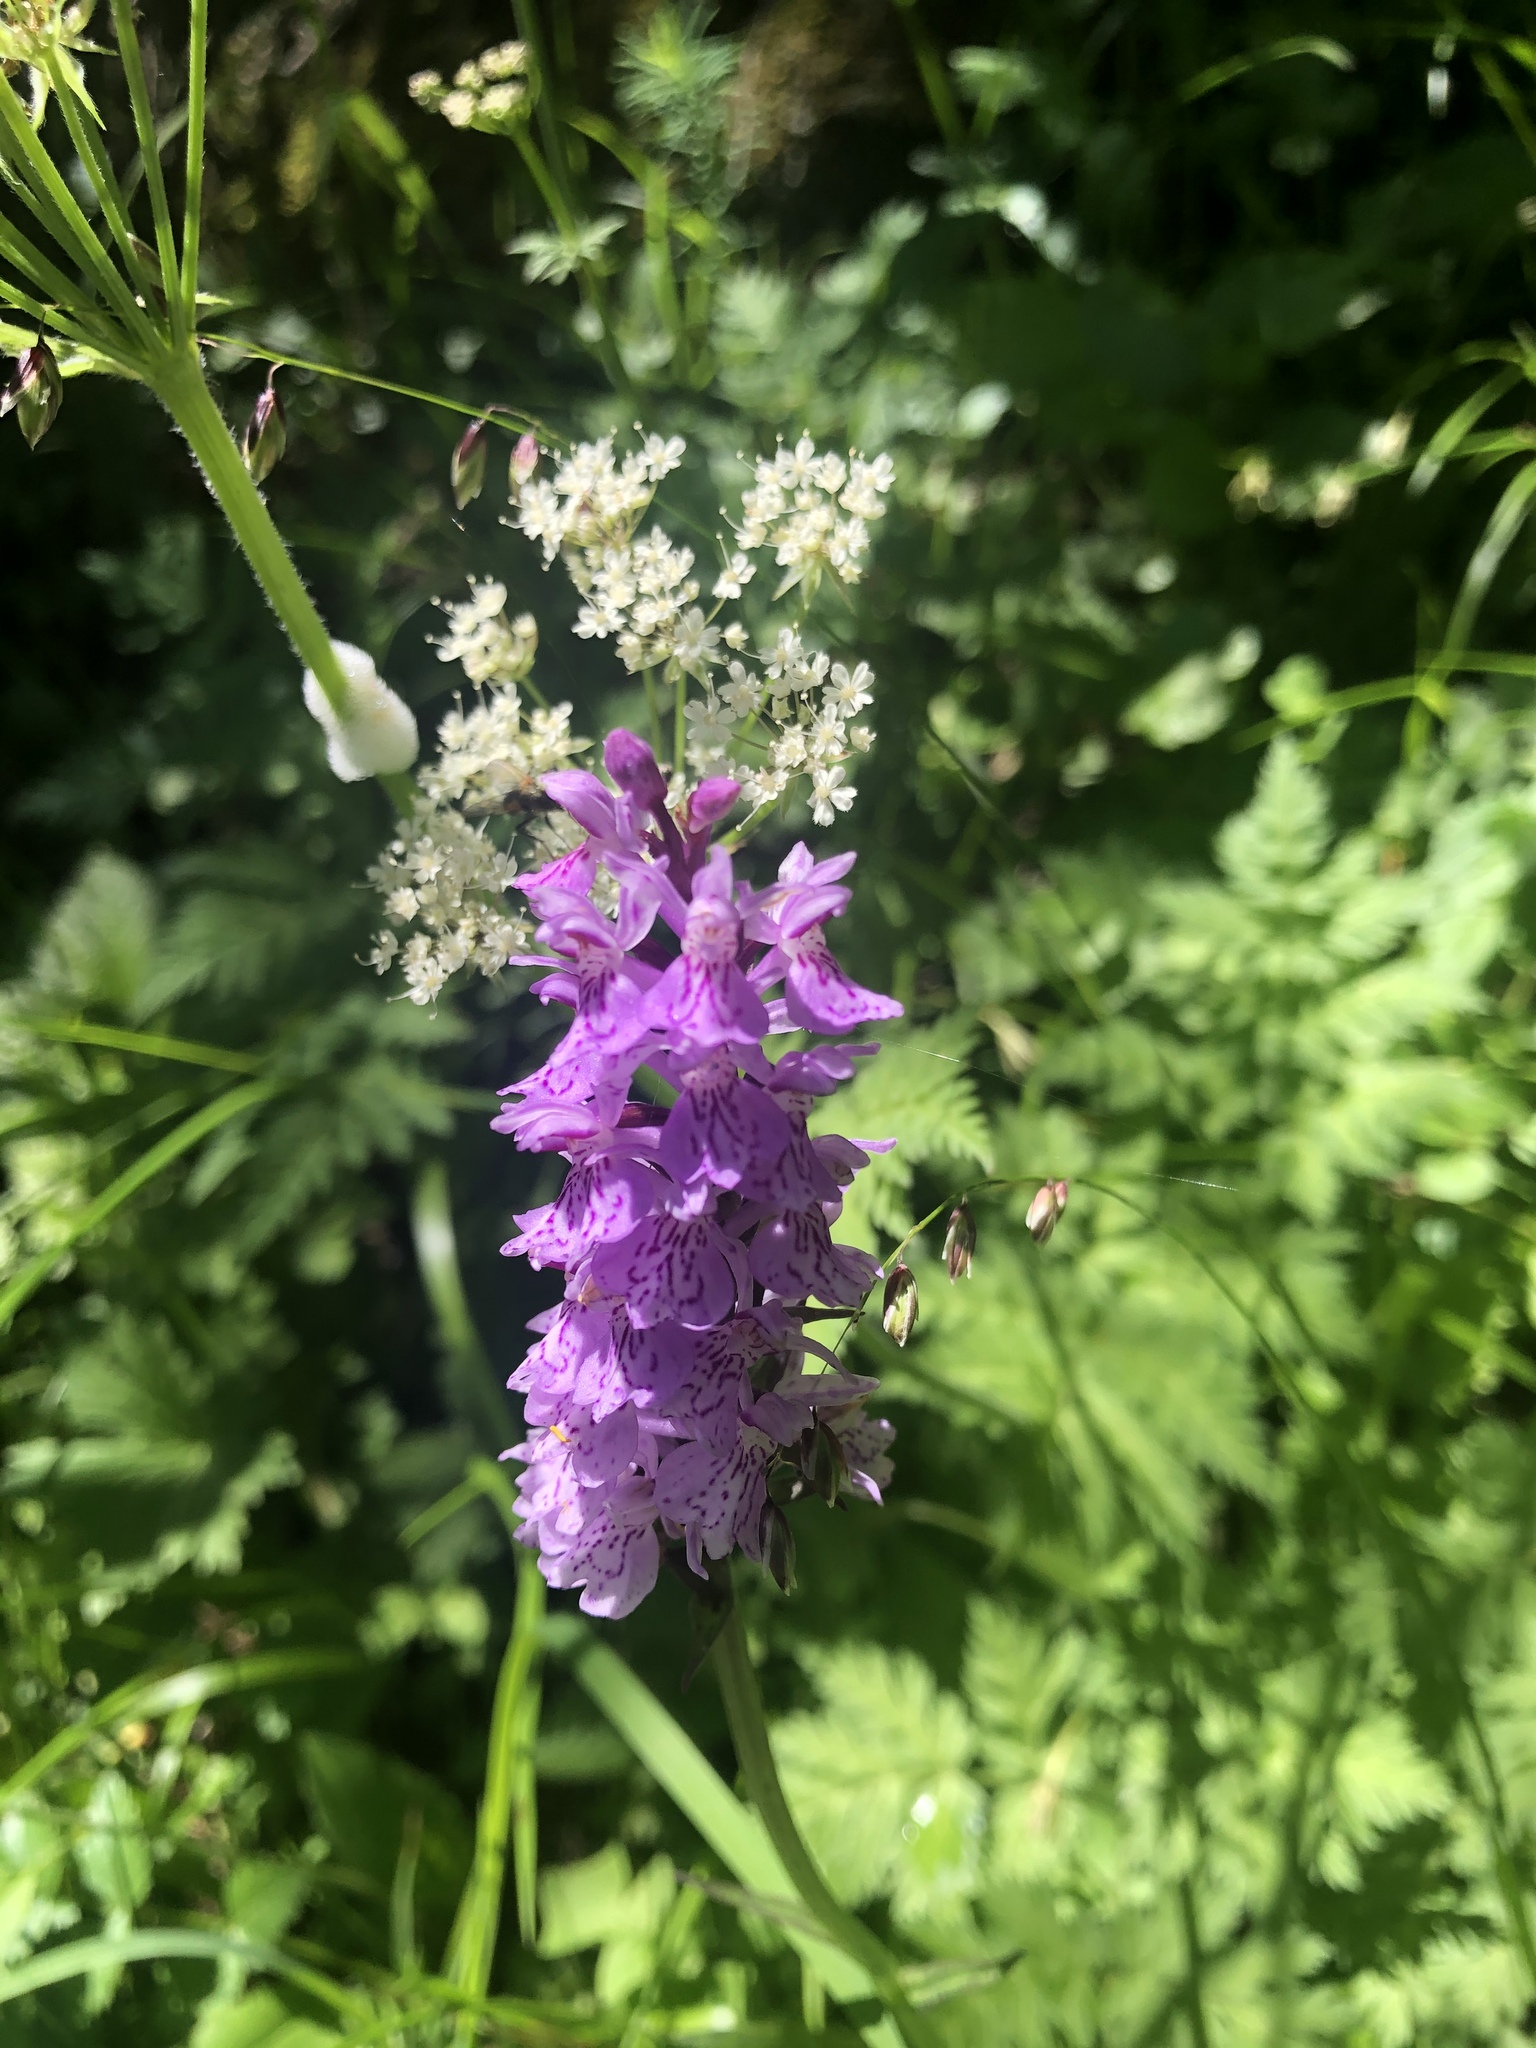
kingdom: Plantae
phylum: Tracheophyta
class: Liliopsida
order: Asparagales
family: Orchidaceae
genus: Dactylorhiza
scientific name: Dactylorhiza majalis
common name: Marsh orchid
